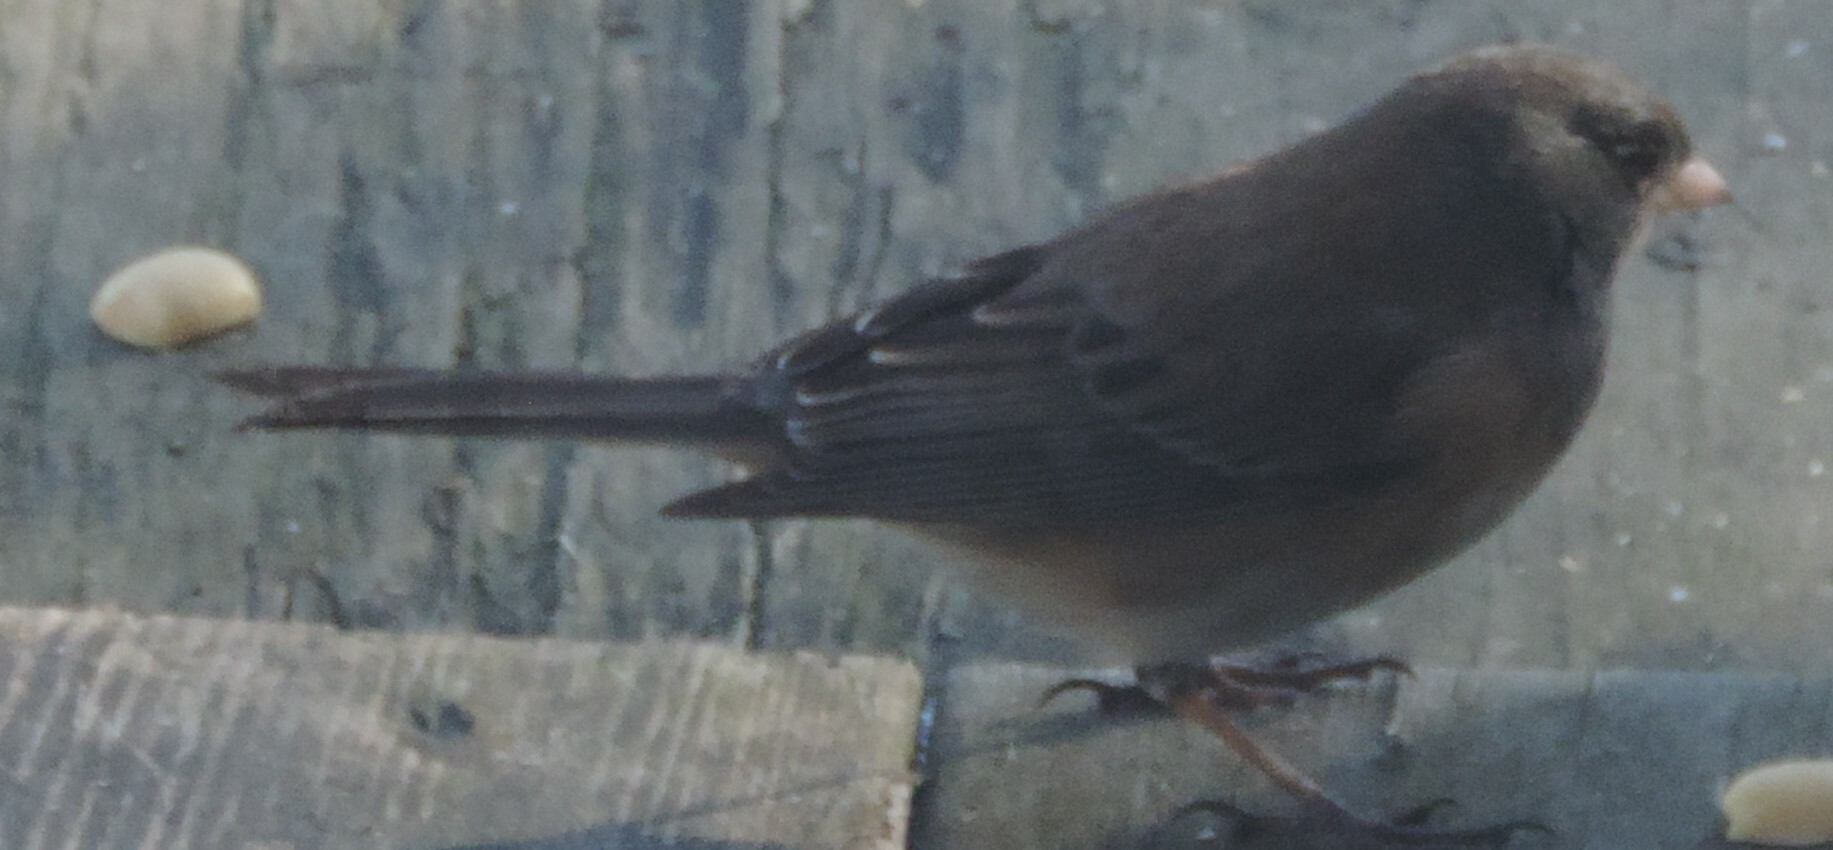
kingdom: Animalia
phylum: Chordata
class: Aves
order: Passeriformes
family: Passerellidae
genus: Junco
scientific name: Junco hyemalis
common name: Dark-eyed junco
